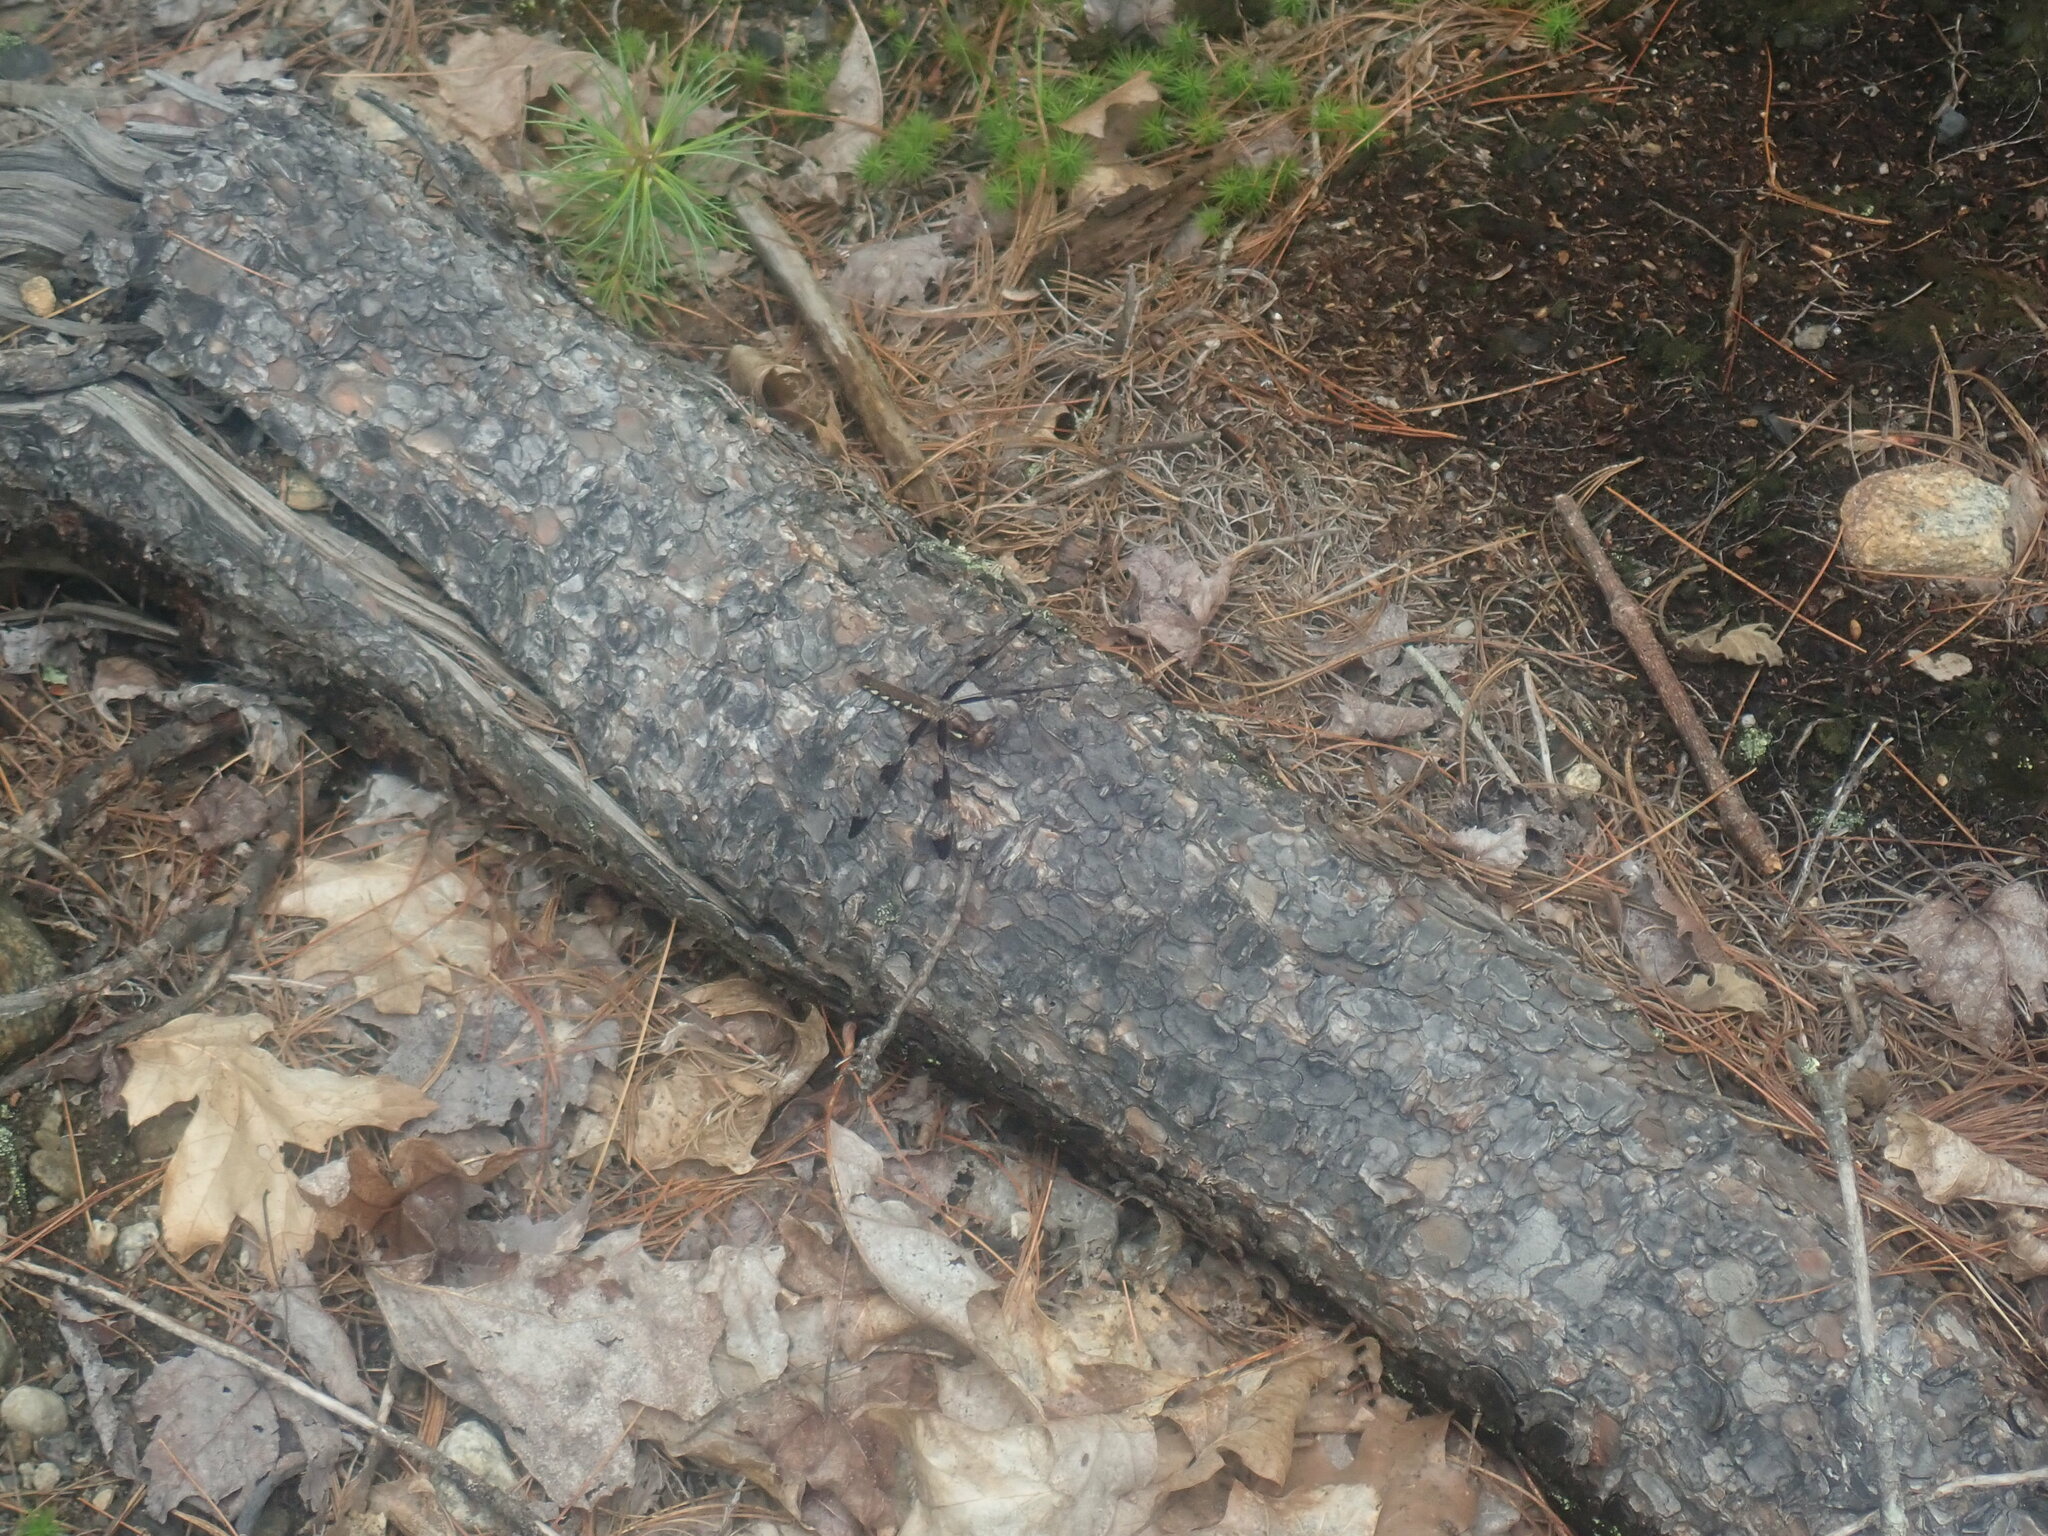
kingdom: Animalia
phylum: Arthropoda
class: Insecta
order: Odonata
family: Libellulidae
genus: Plathemis
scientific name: Plathemis lydia
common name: Common whitetail
